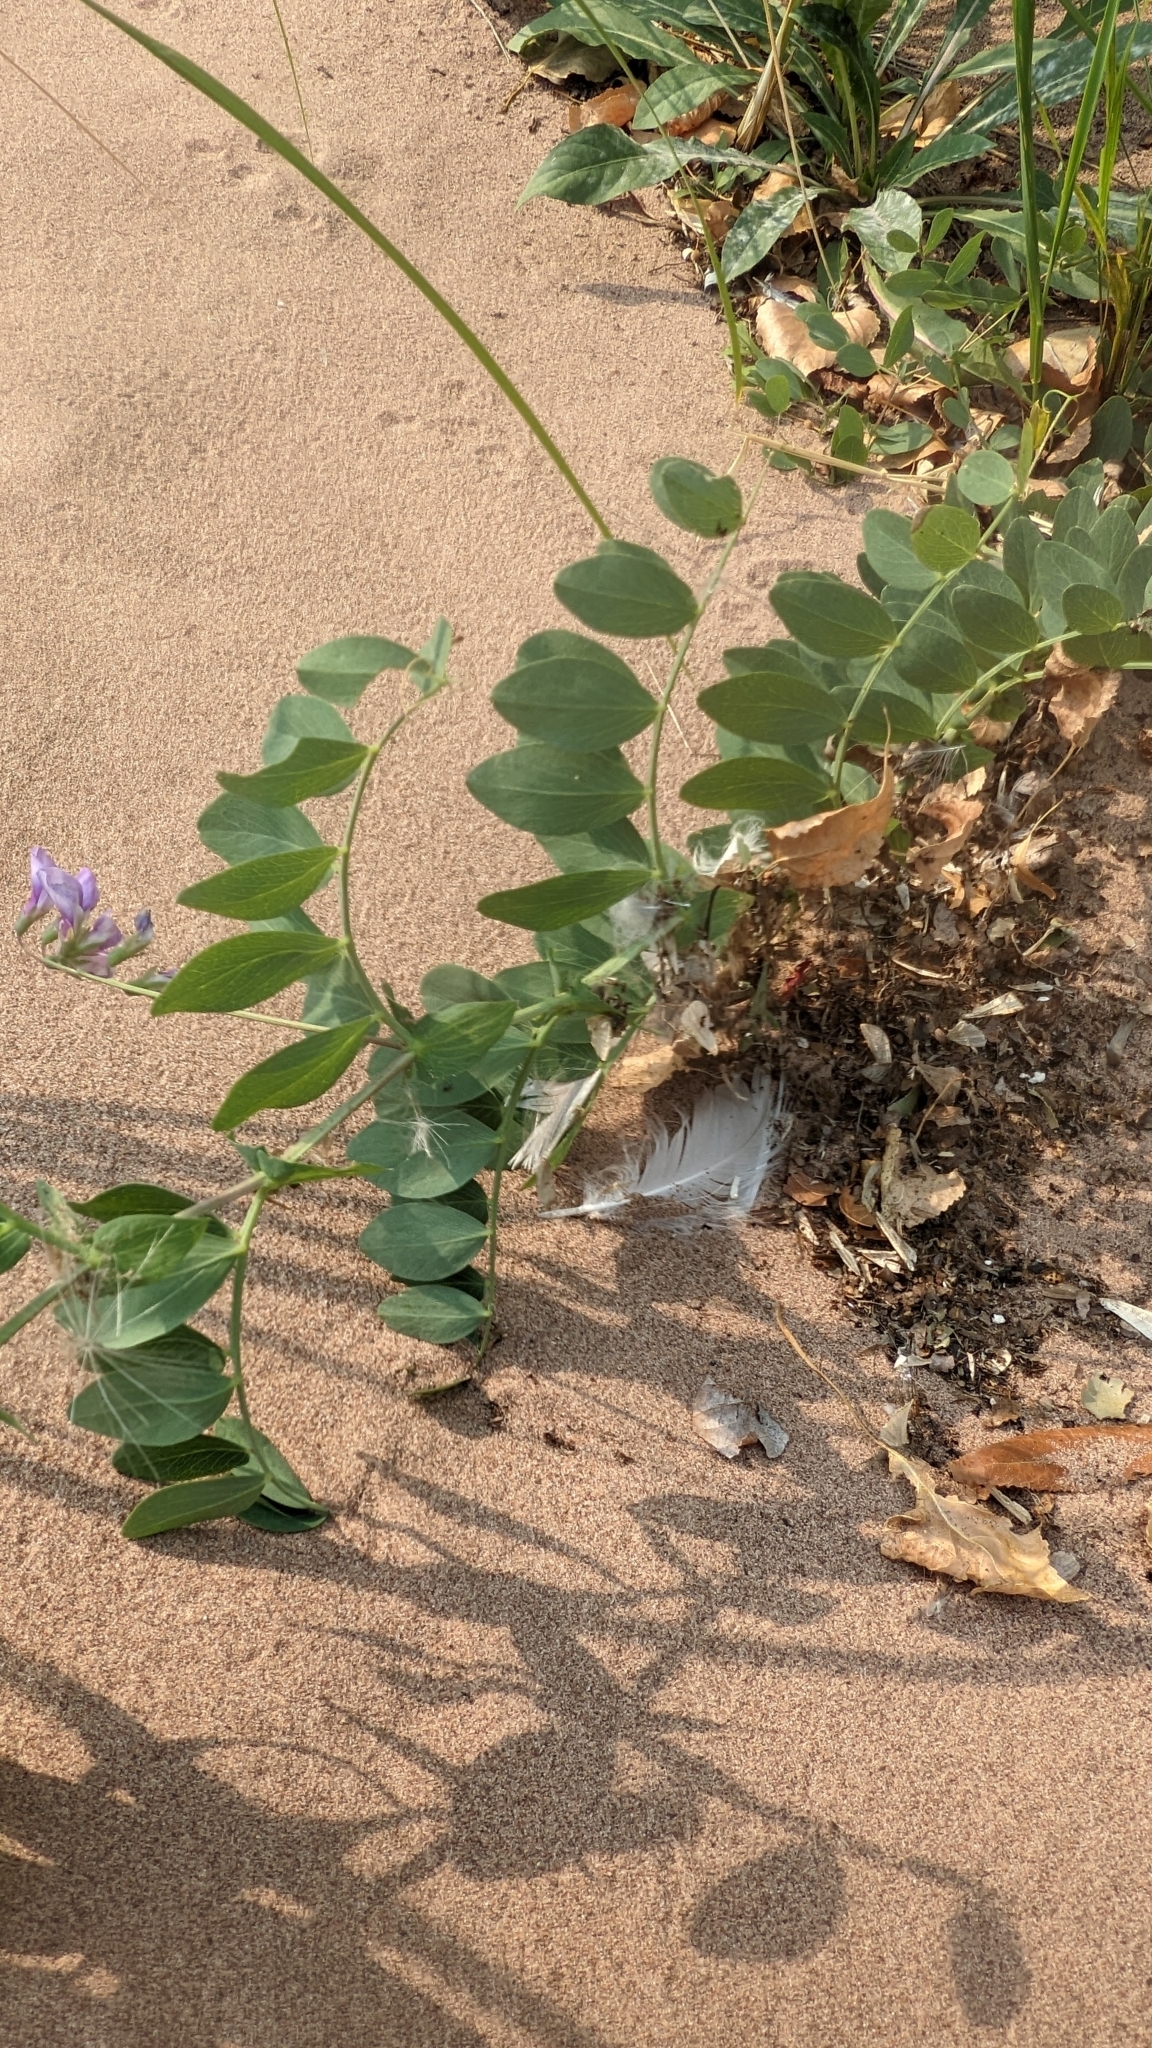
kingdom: Plantae
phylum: Tracheophyta
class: Magnoliopsida
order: Fabales
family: Fabaceae
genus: Lathyrus
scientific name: Lathyrus japonicus
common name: Sea pea
